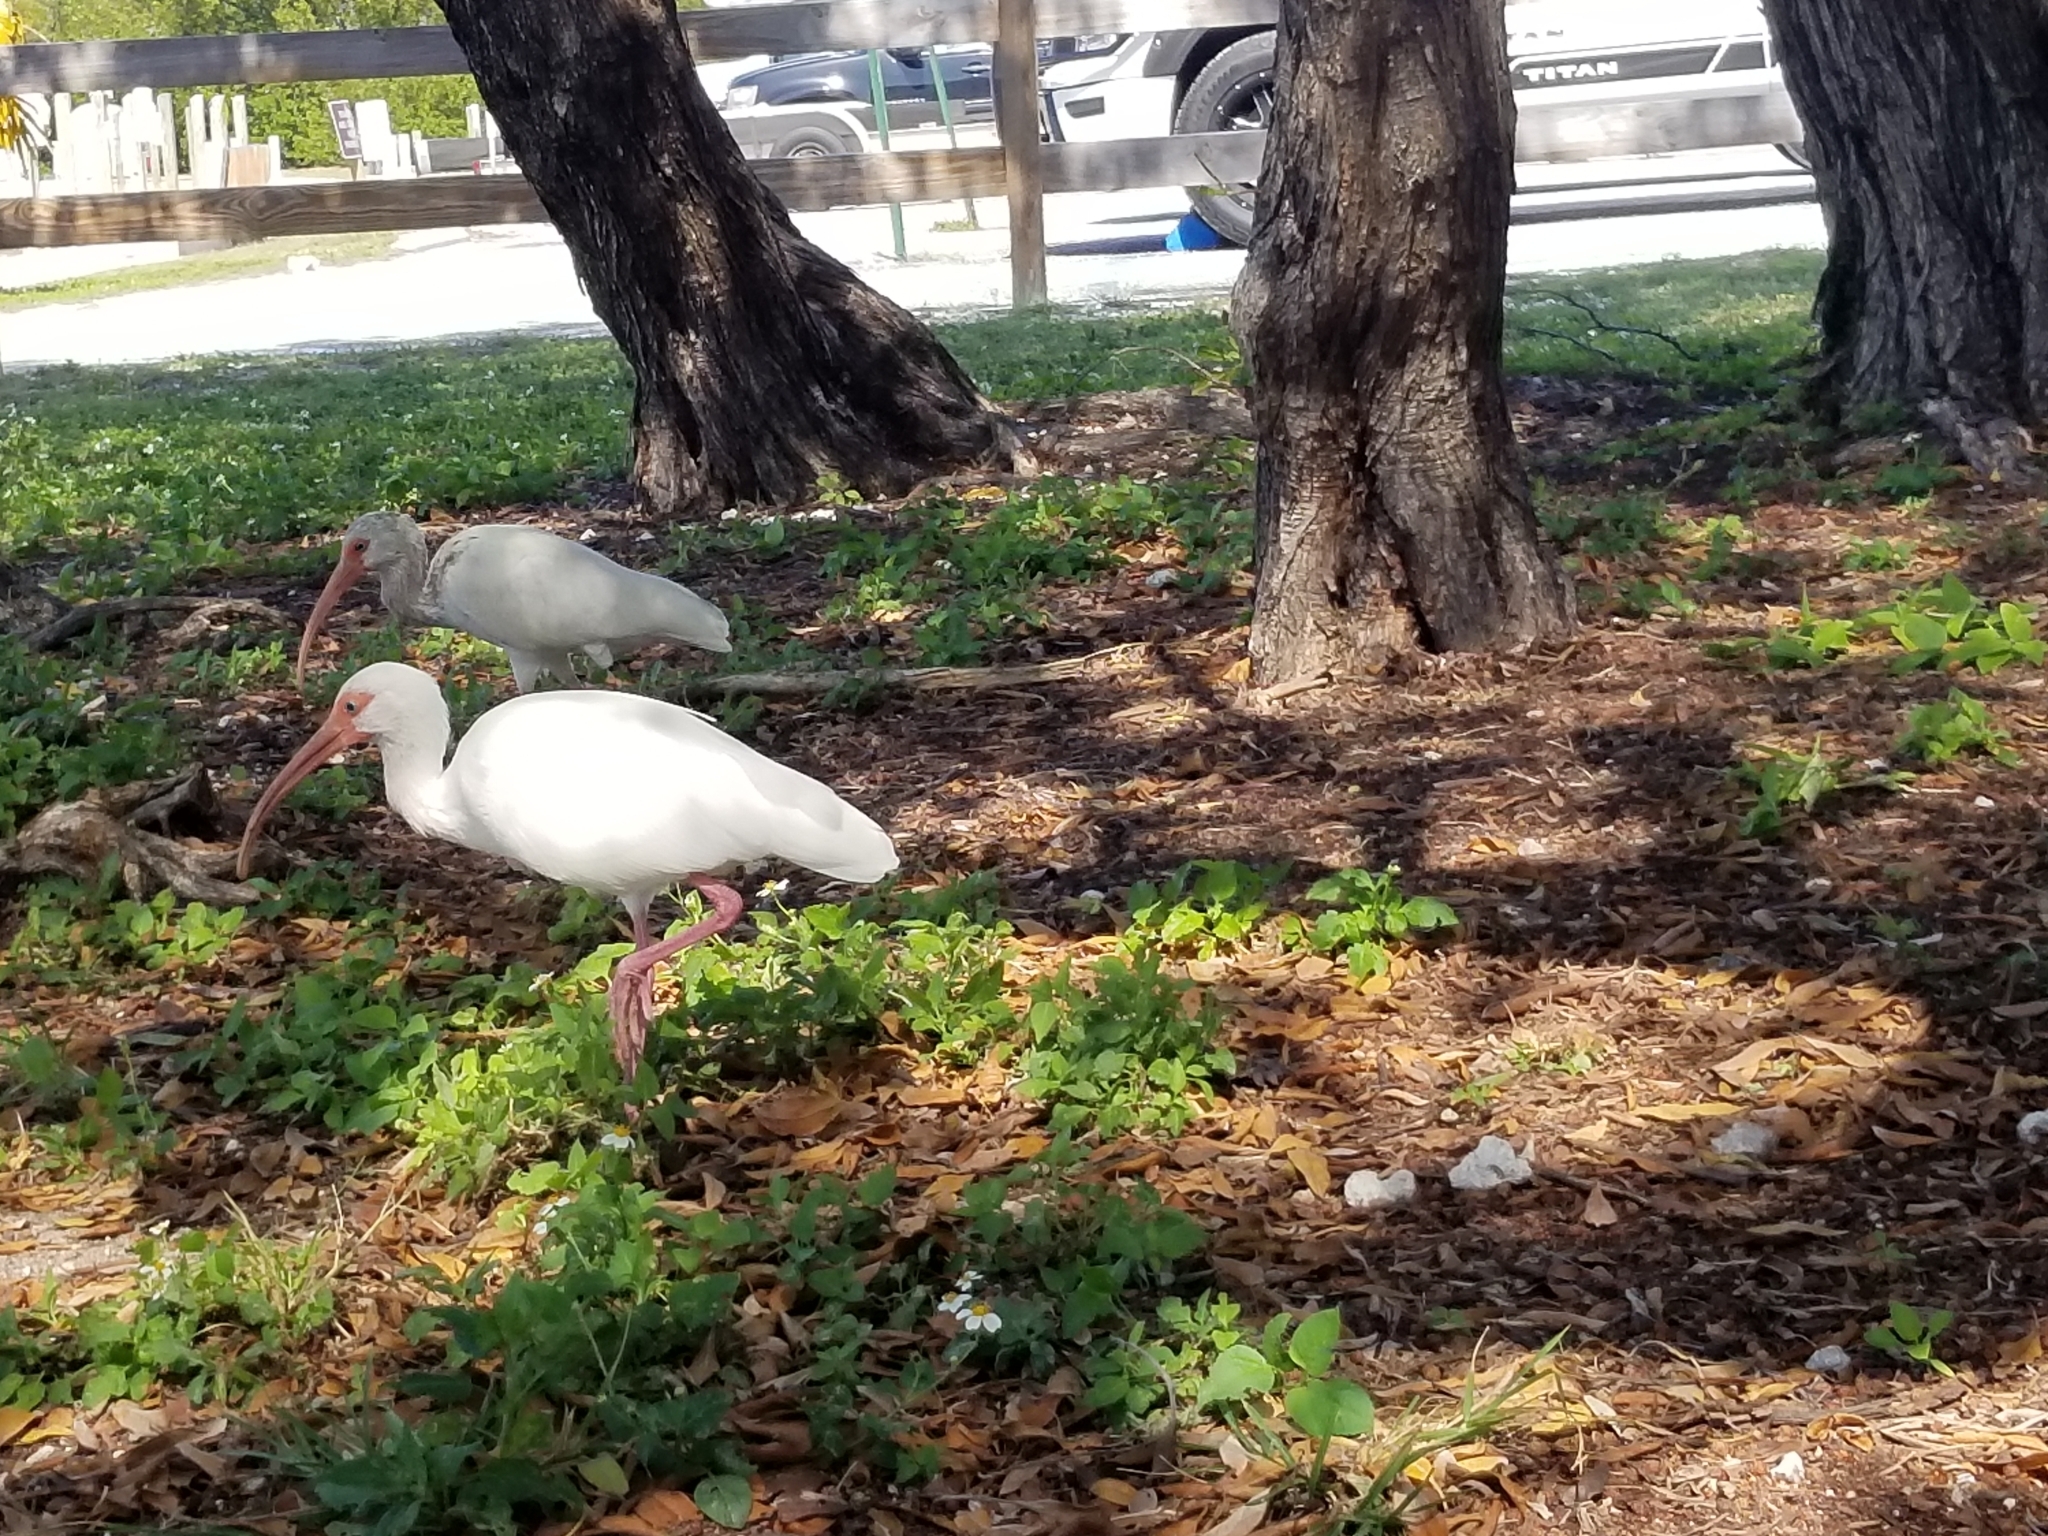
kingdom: Animalia
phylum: Chordata
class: Aves
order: Pelecaniformes
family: Threskiornithidae
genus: Eudocimus
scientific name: Eudocimus albus
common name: White ibis
